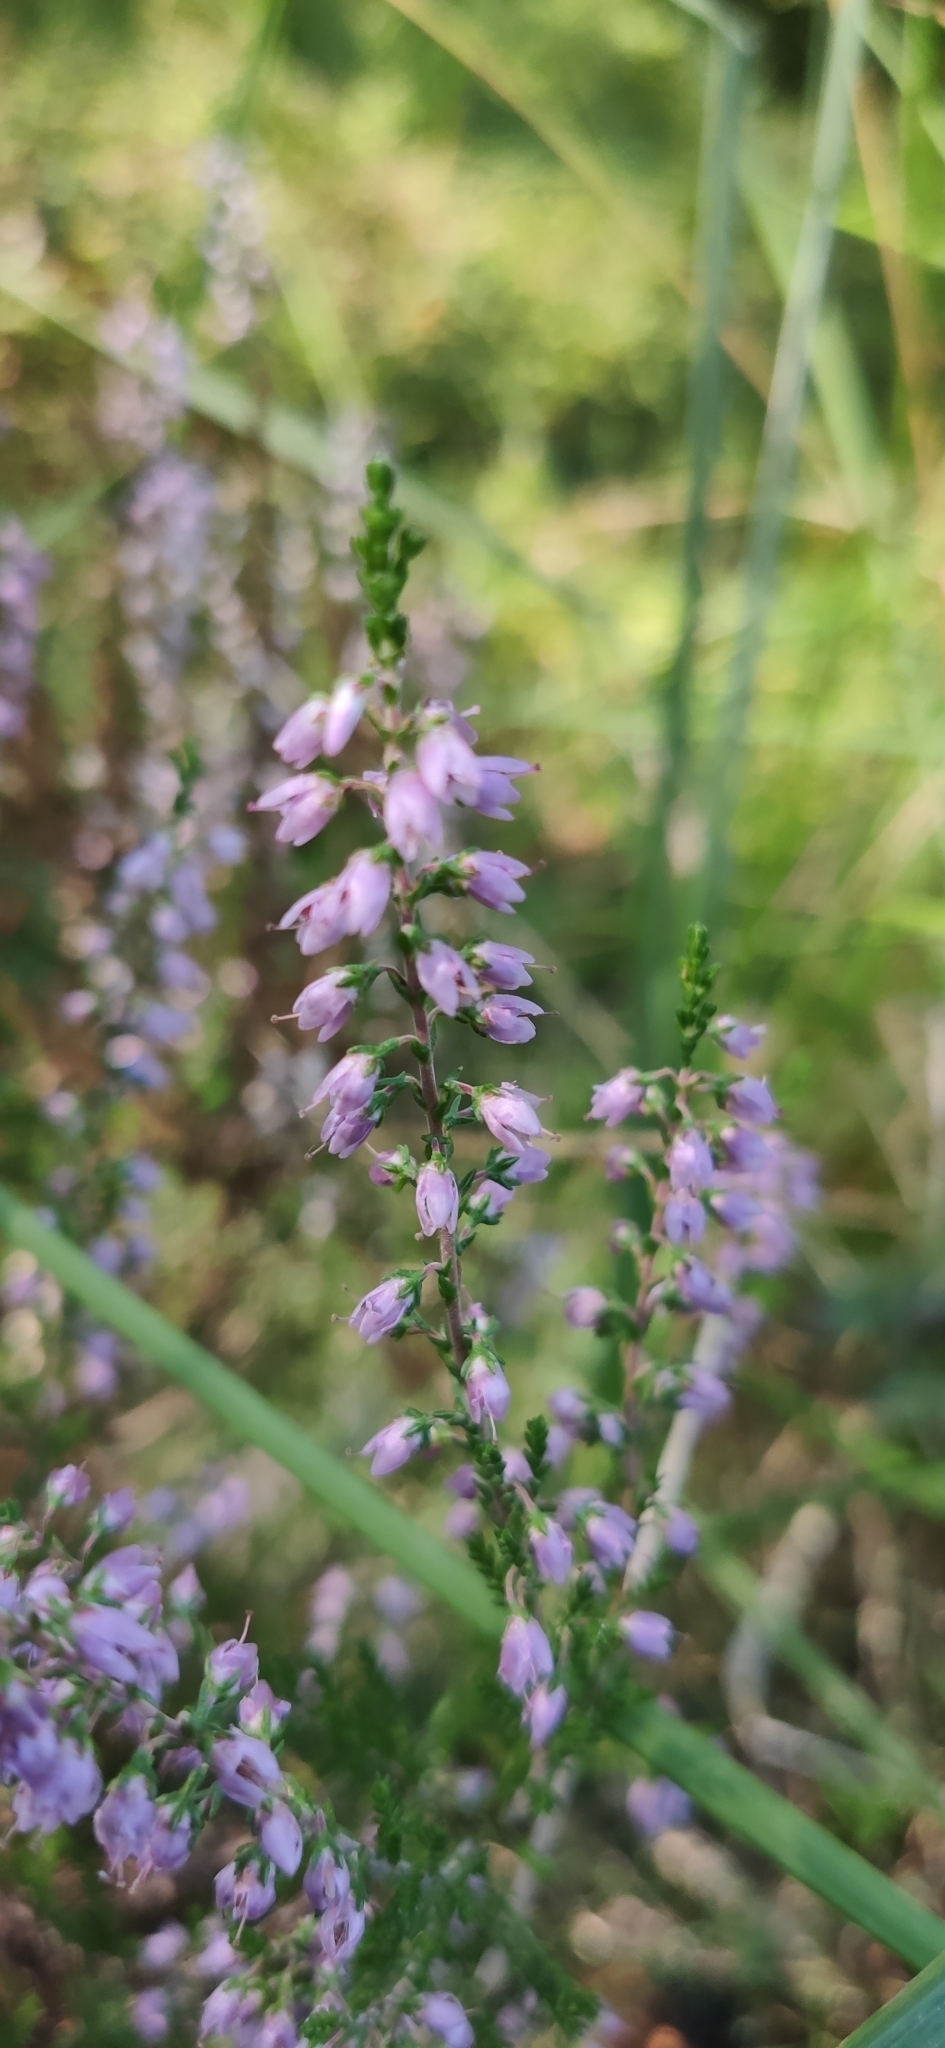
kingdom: Plantae
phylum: Tracheophyta
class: Magnoliopsida
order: Ericales
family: Ericaceae
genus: Calluna
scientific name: Calluna vulgaris
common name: Heather
